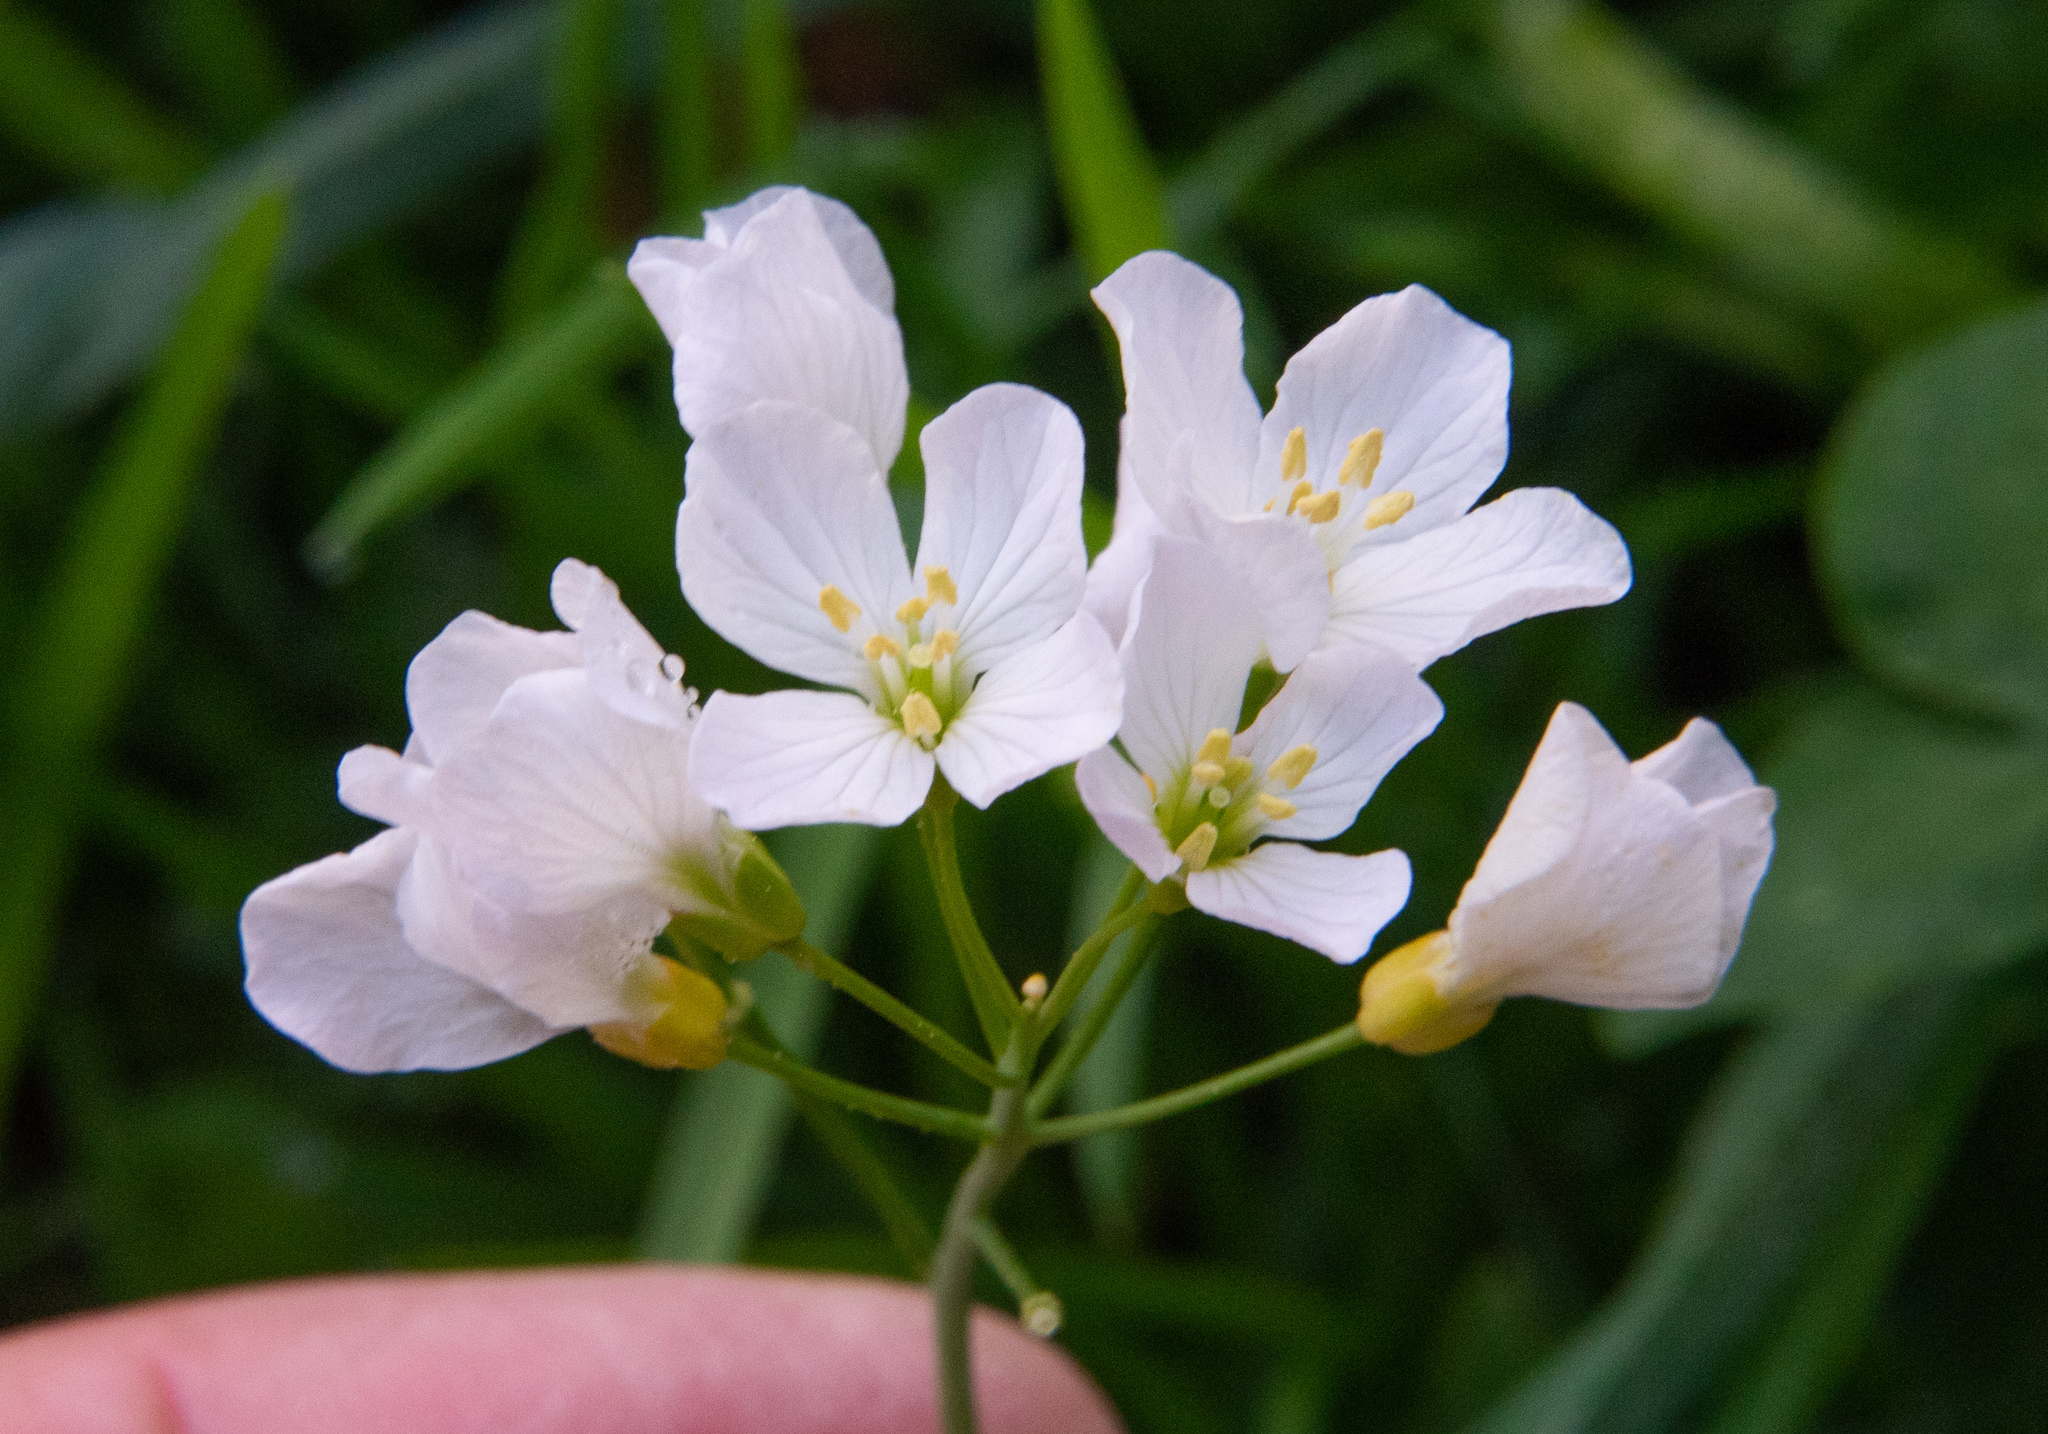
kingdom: Plantae
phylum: Tracheophyta
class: Magnoliopsida
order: Brassicales
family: Brassicaceae
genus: Cardamine
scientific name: Cardamine pratensis
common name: Cuckoo flower
